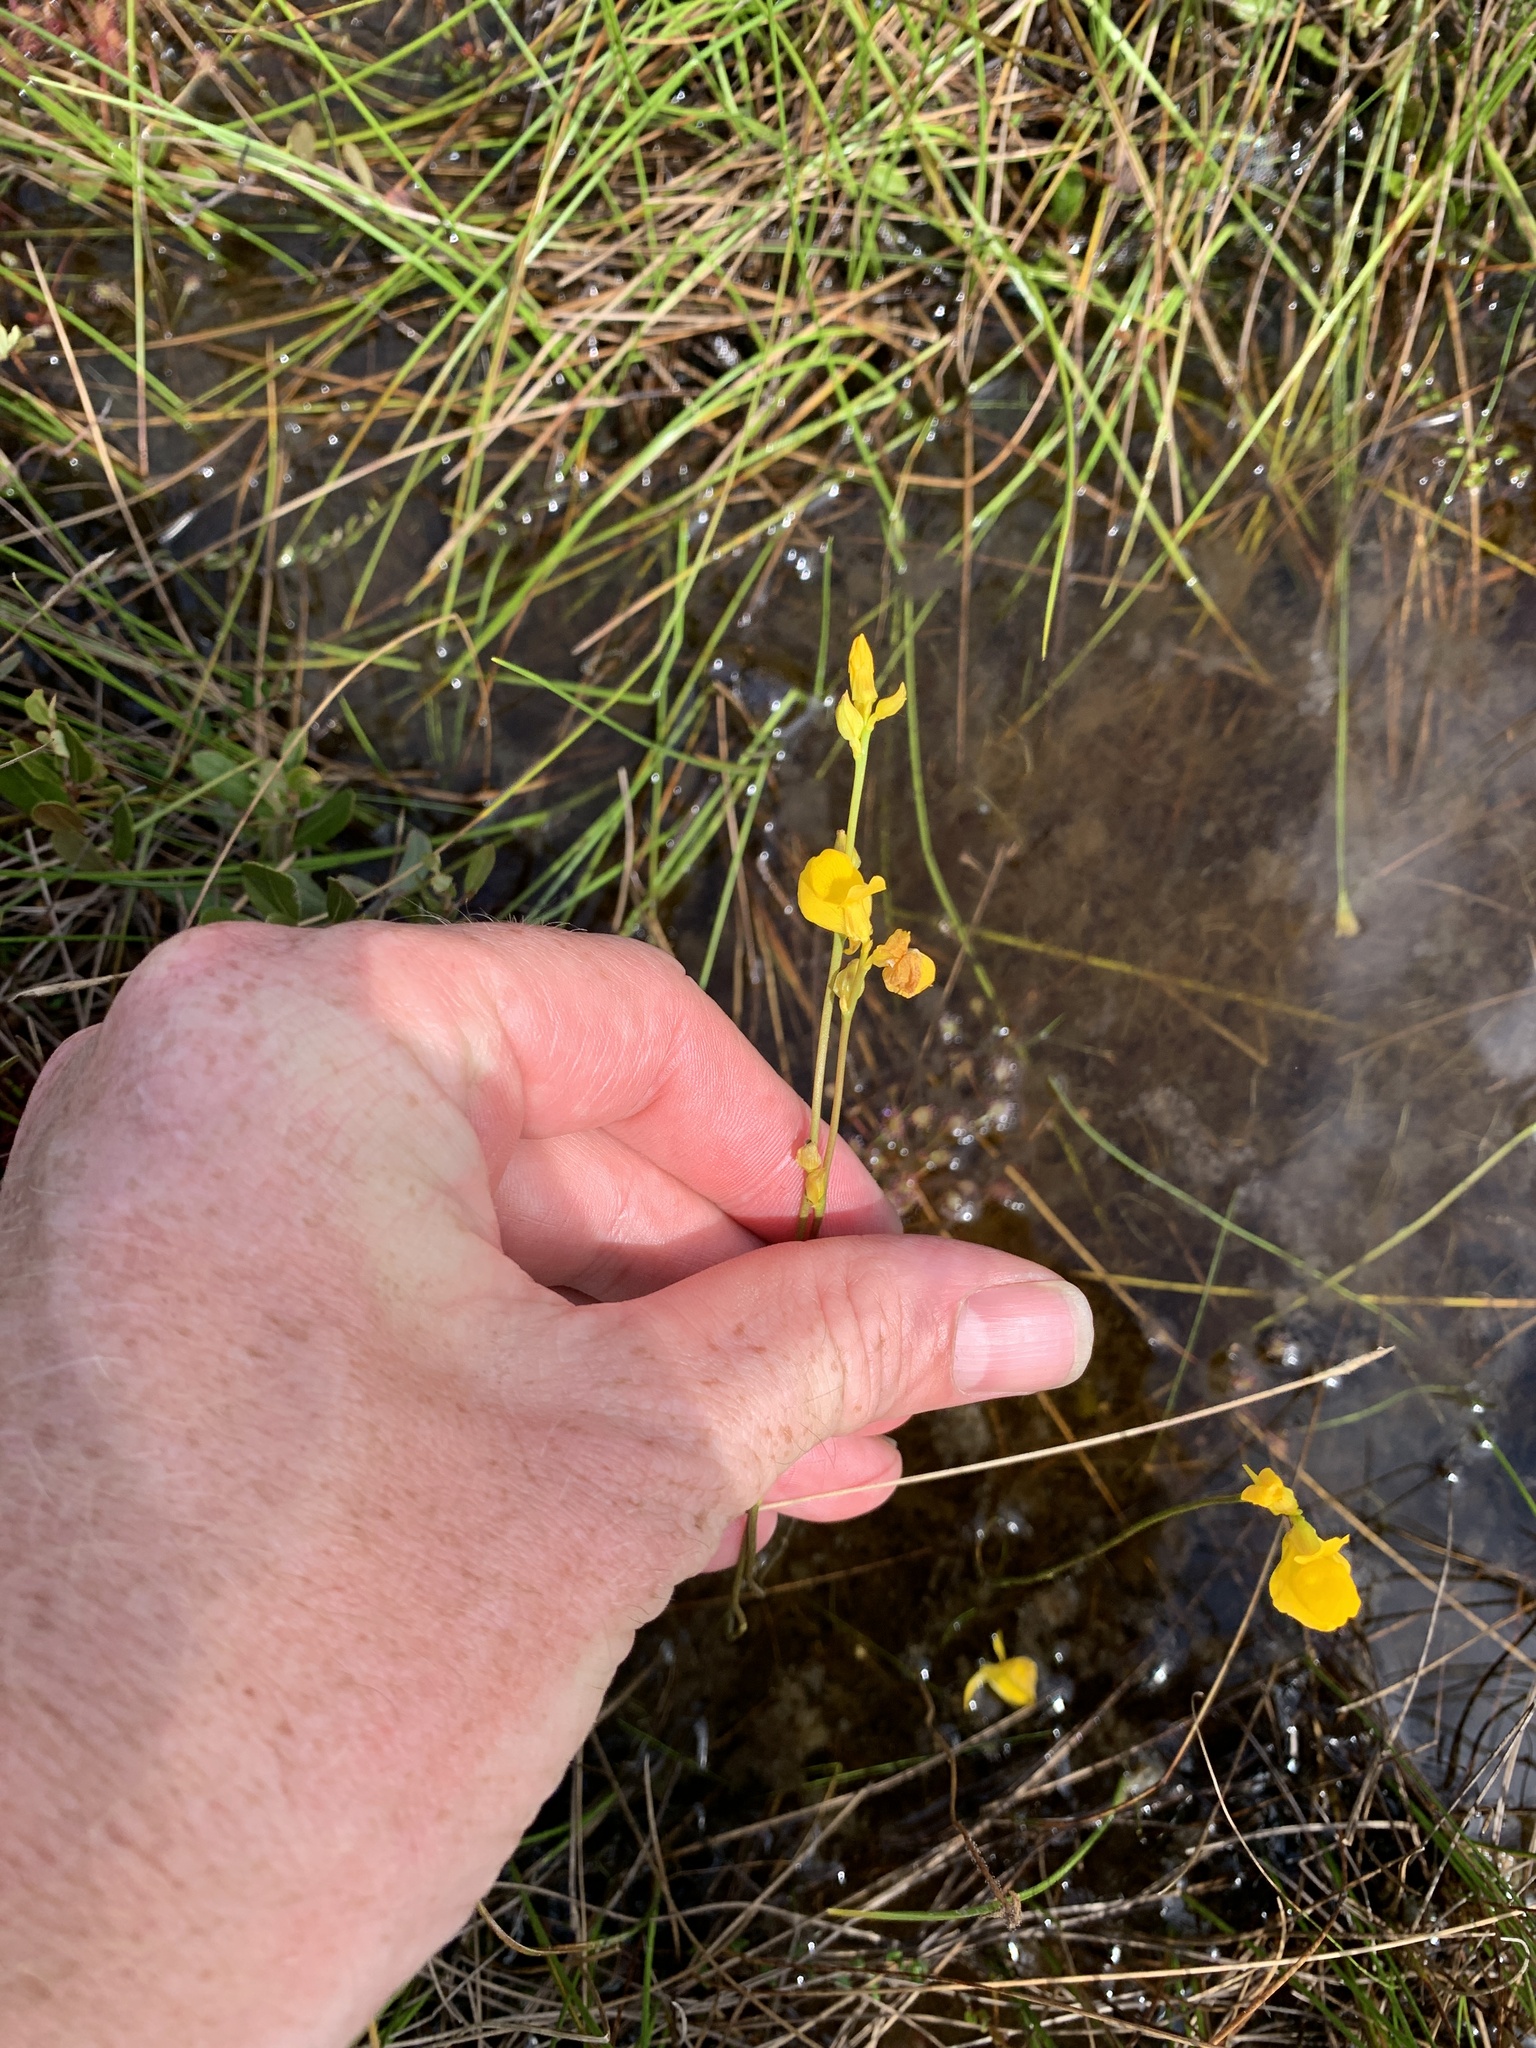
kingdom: Plantae
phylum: Tracheophyta
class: Magnoliopsida
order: Lamiales
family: Lentibulariaceae
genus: Utricularia
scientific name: Utricularia cornuta
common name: Horned bladderwort
